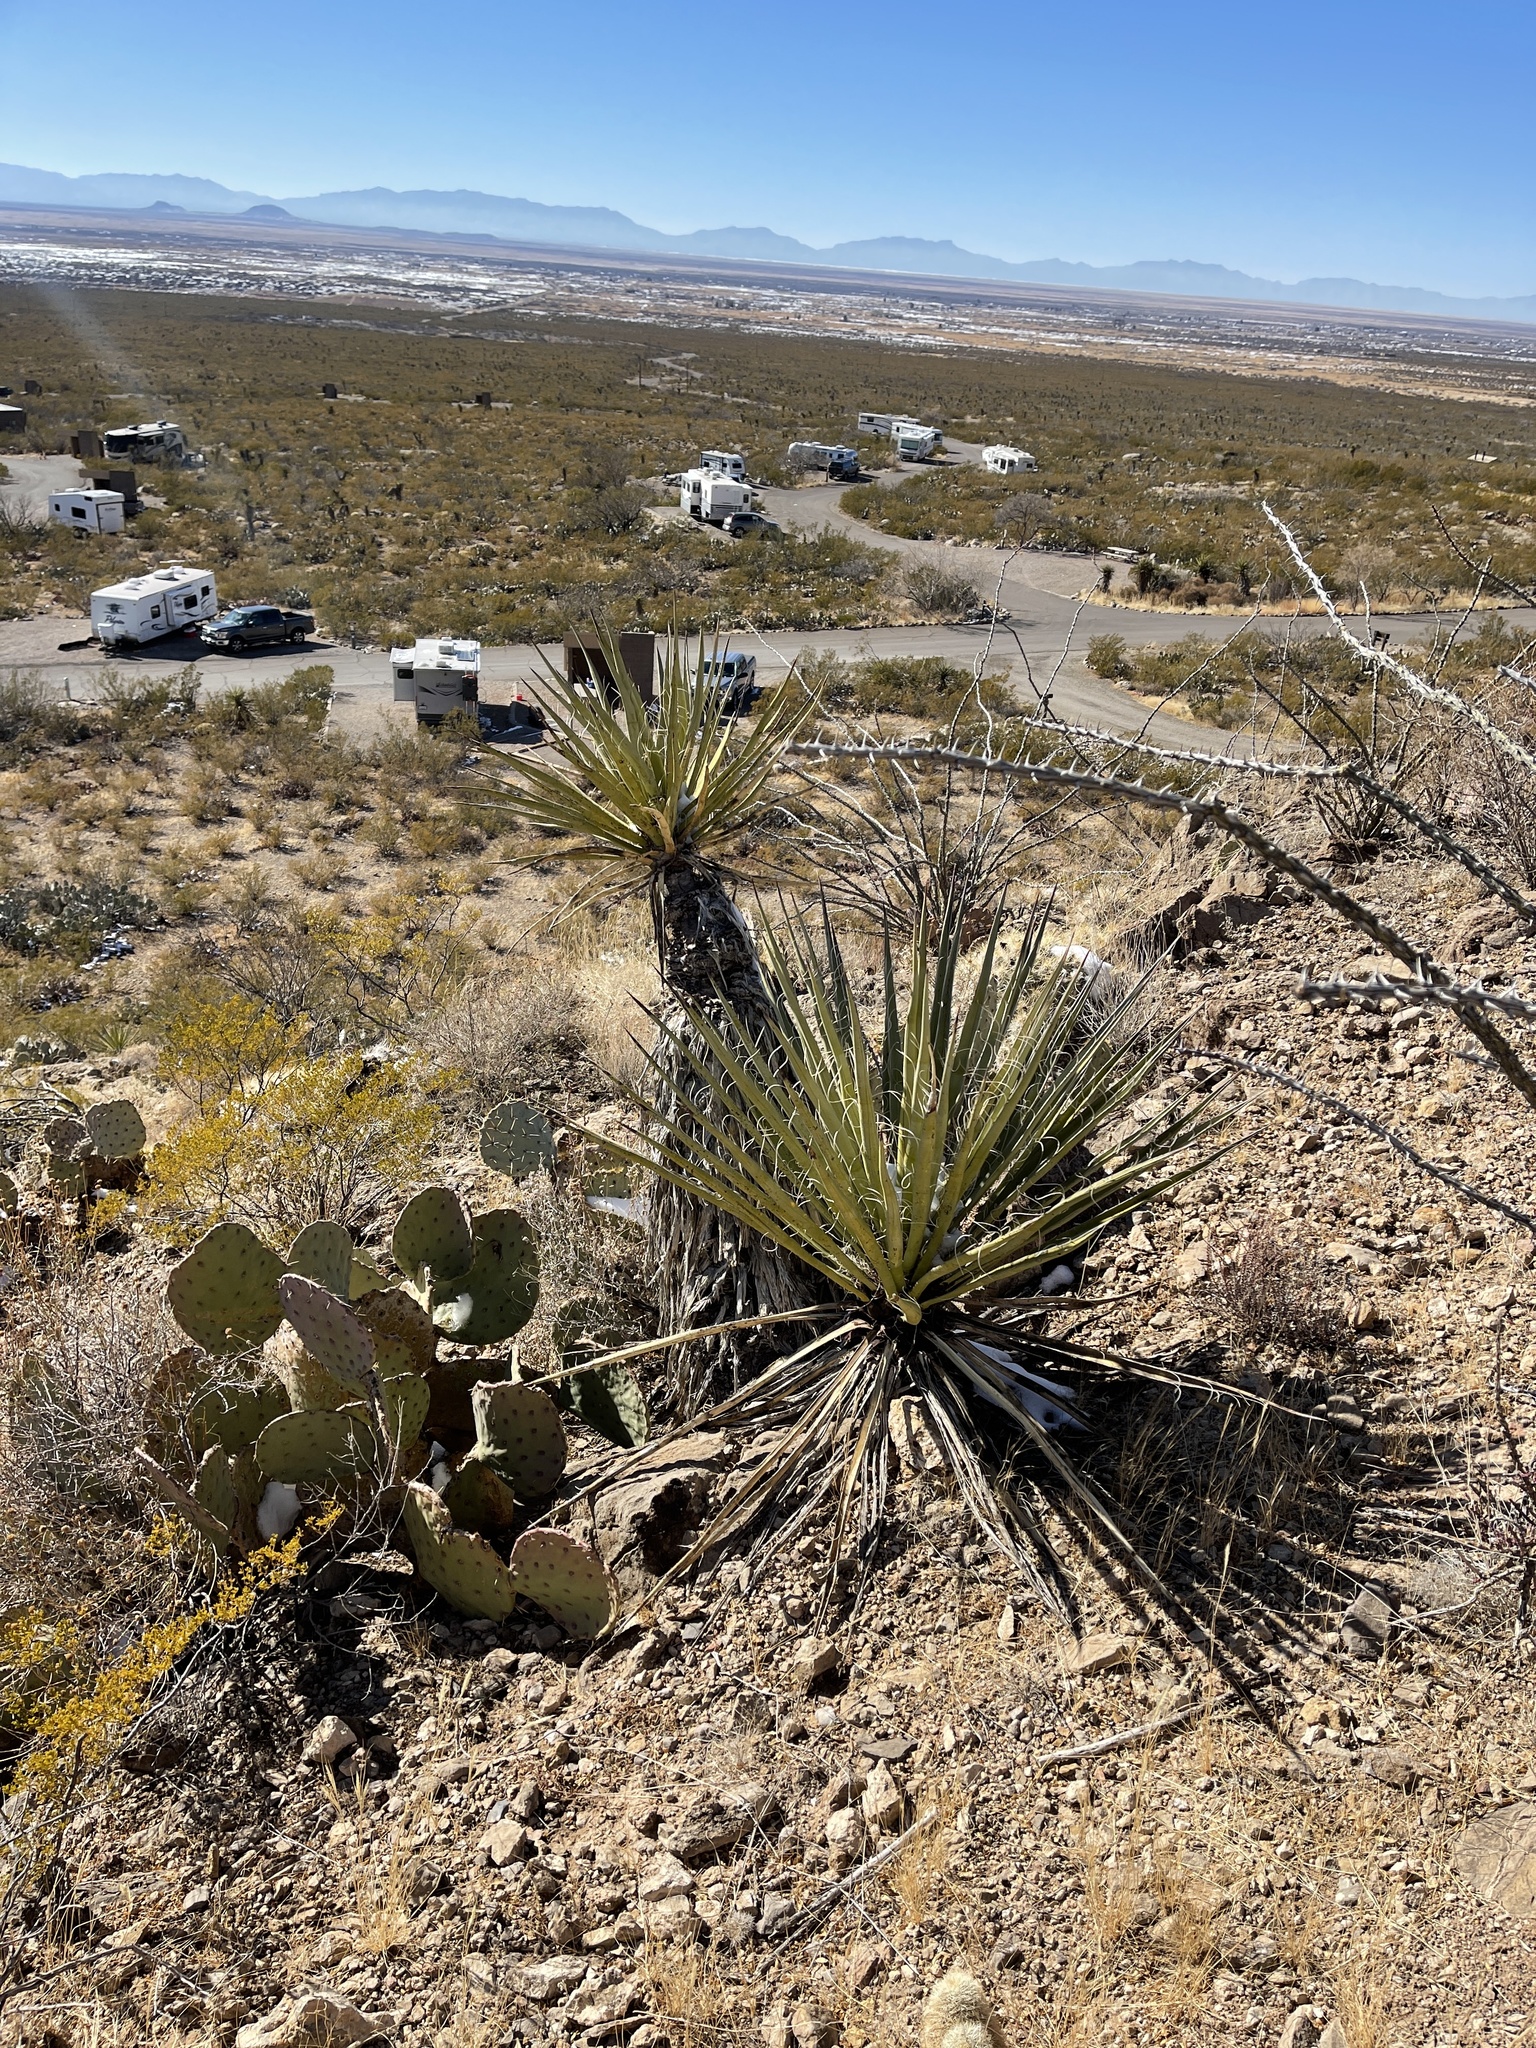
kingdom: Plantae
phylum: Tracheophyta
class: Liliopsida
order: Asparagales
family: Asparagaceae
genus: Yucca
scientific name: Yucca treculiana
